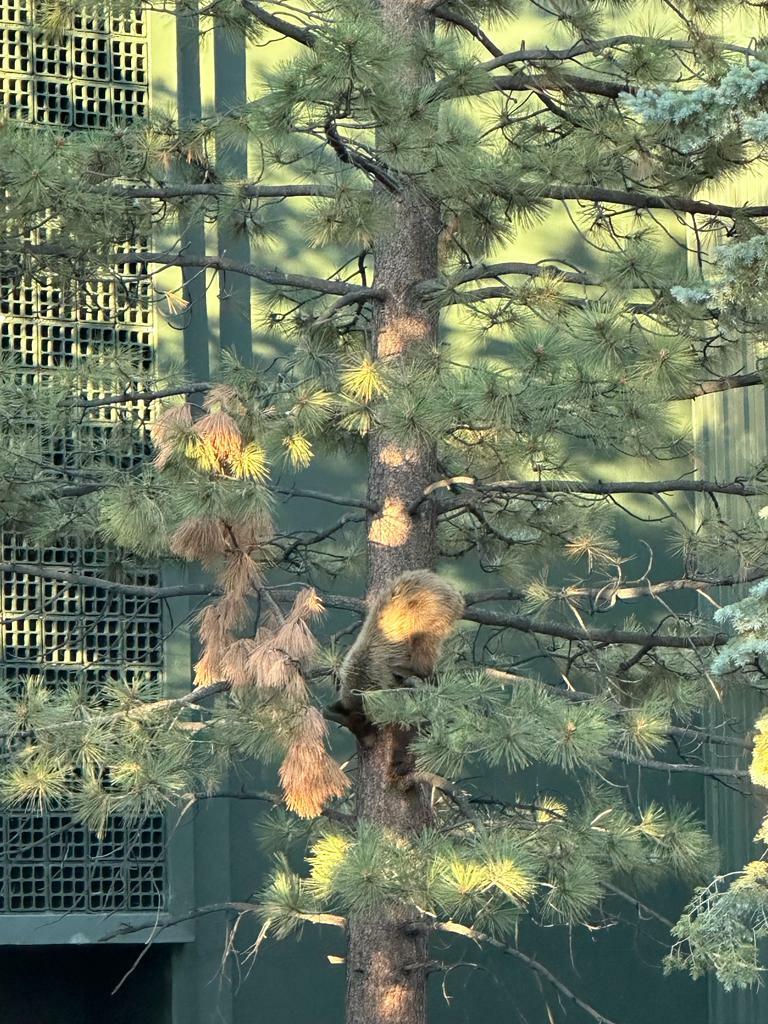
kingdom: Animalia
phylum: Chordata
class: Mammalia
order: Carnivora
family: Ursidae
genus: Ursus
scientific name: Ursus americanus
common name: American black bear
